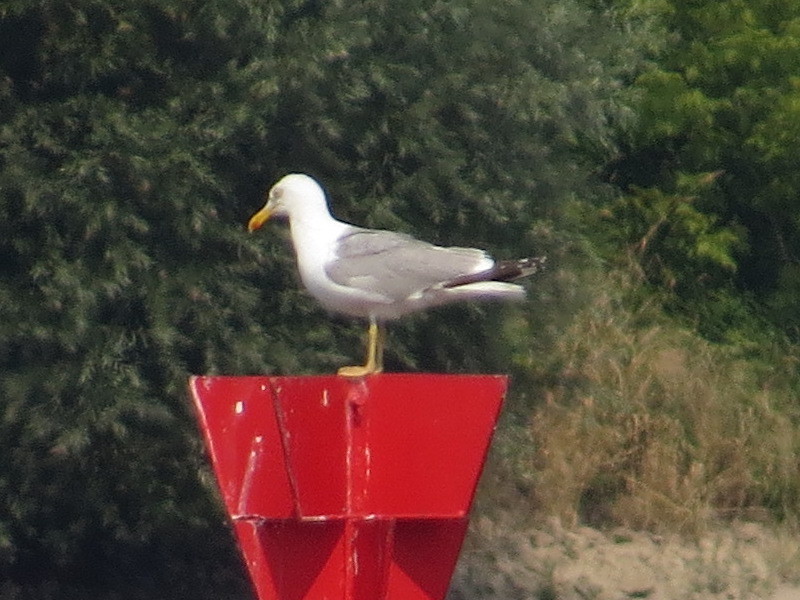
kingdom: Animalia
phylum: Chordata
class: Aves
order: Charadriiformes
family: Laridae
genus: Larus
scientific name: Larus michahellis
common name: Yellow-legged gull
